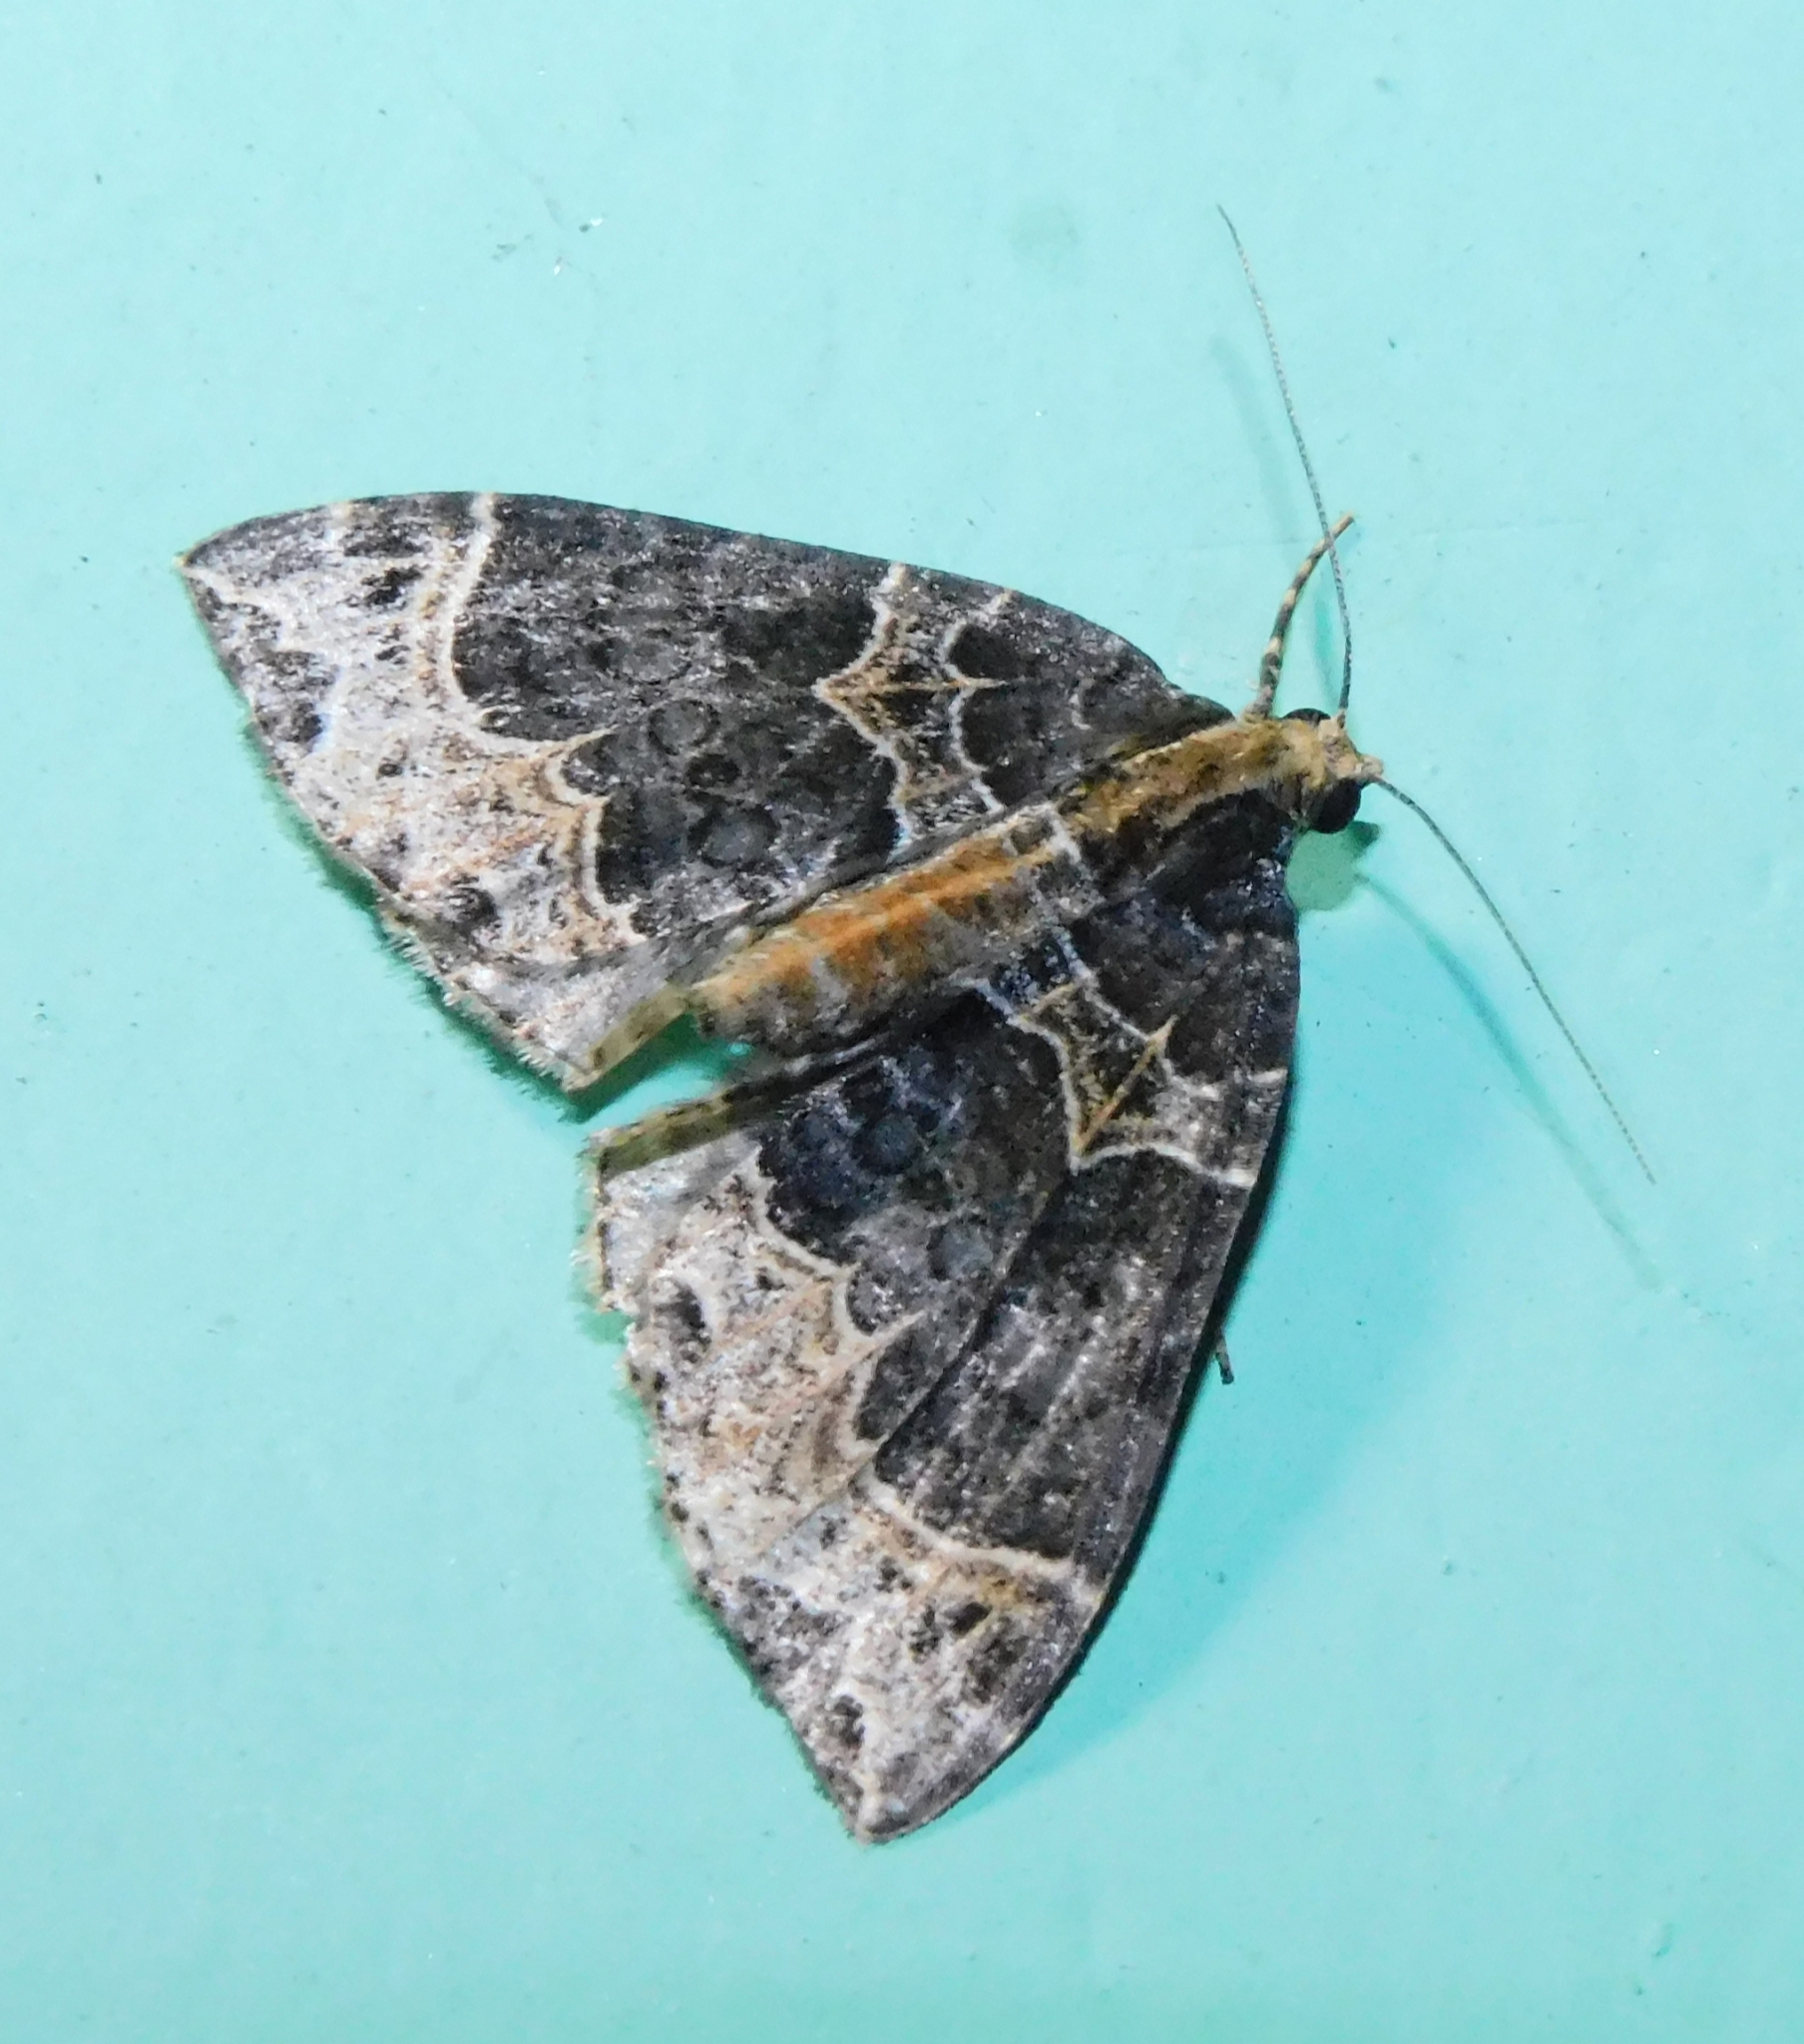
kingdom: Animalia
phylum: Arthropoda
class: Insecta
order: Lepidoptera
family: Geometridae
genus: Ecliptopera
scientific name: Ecliptopera substituta
